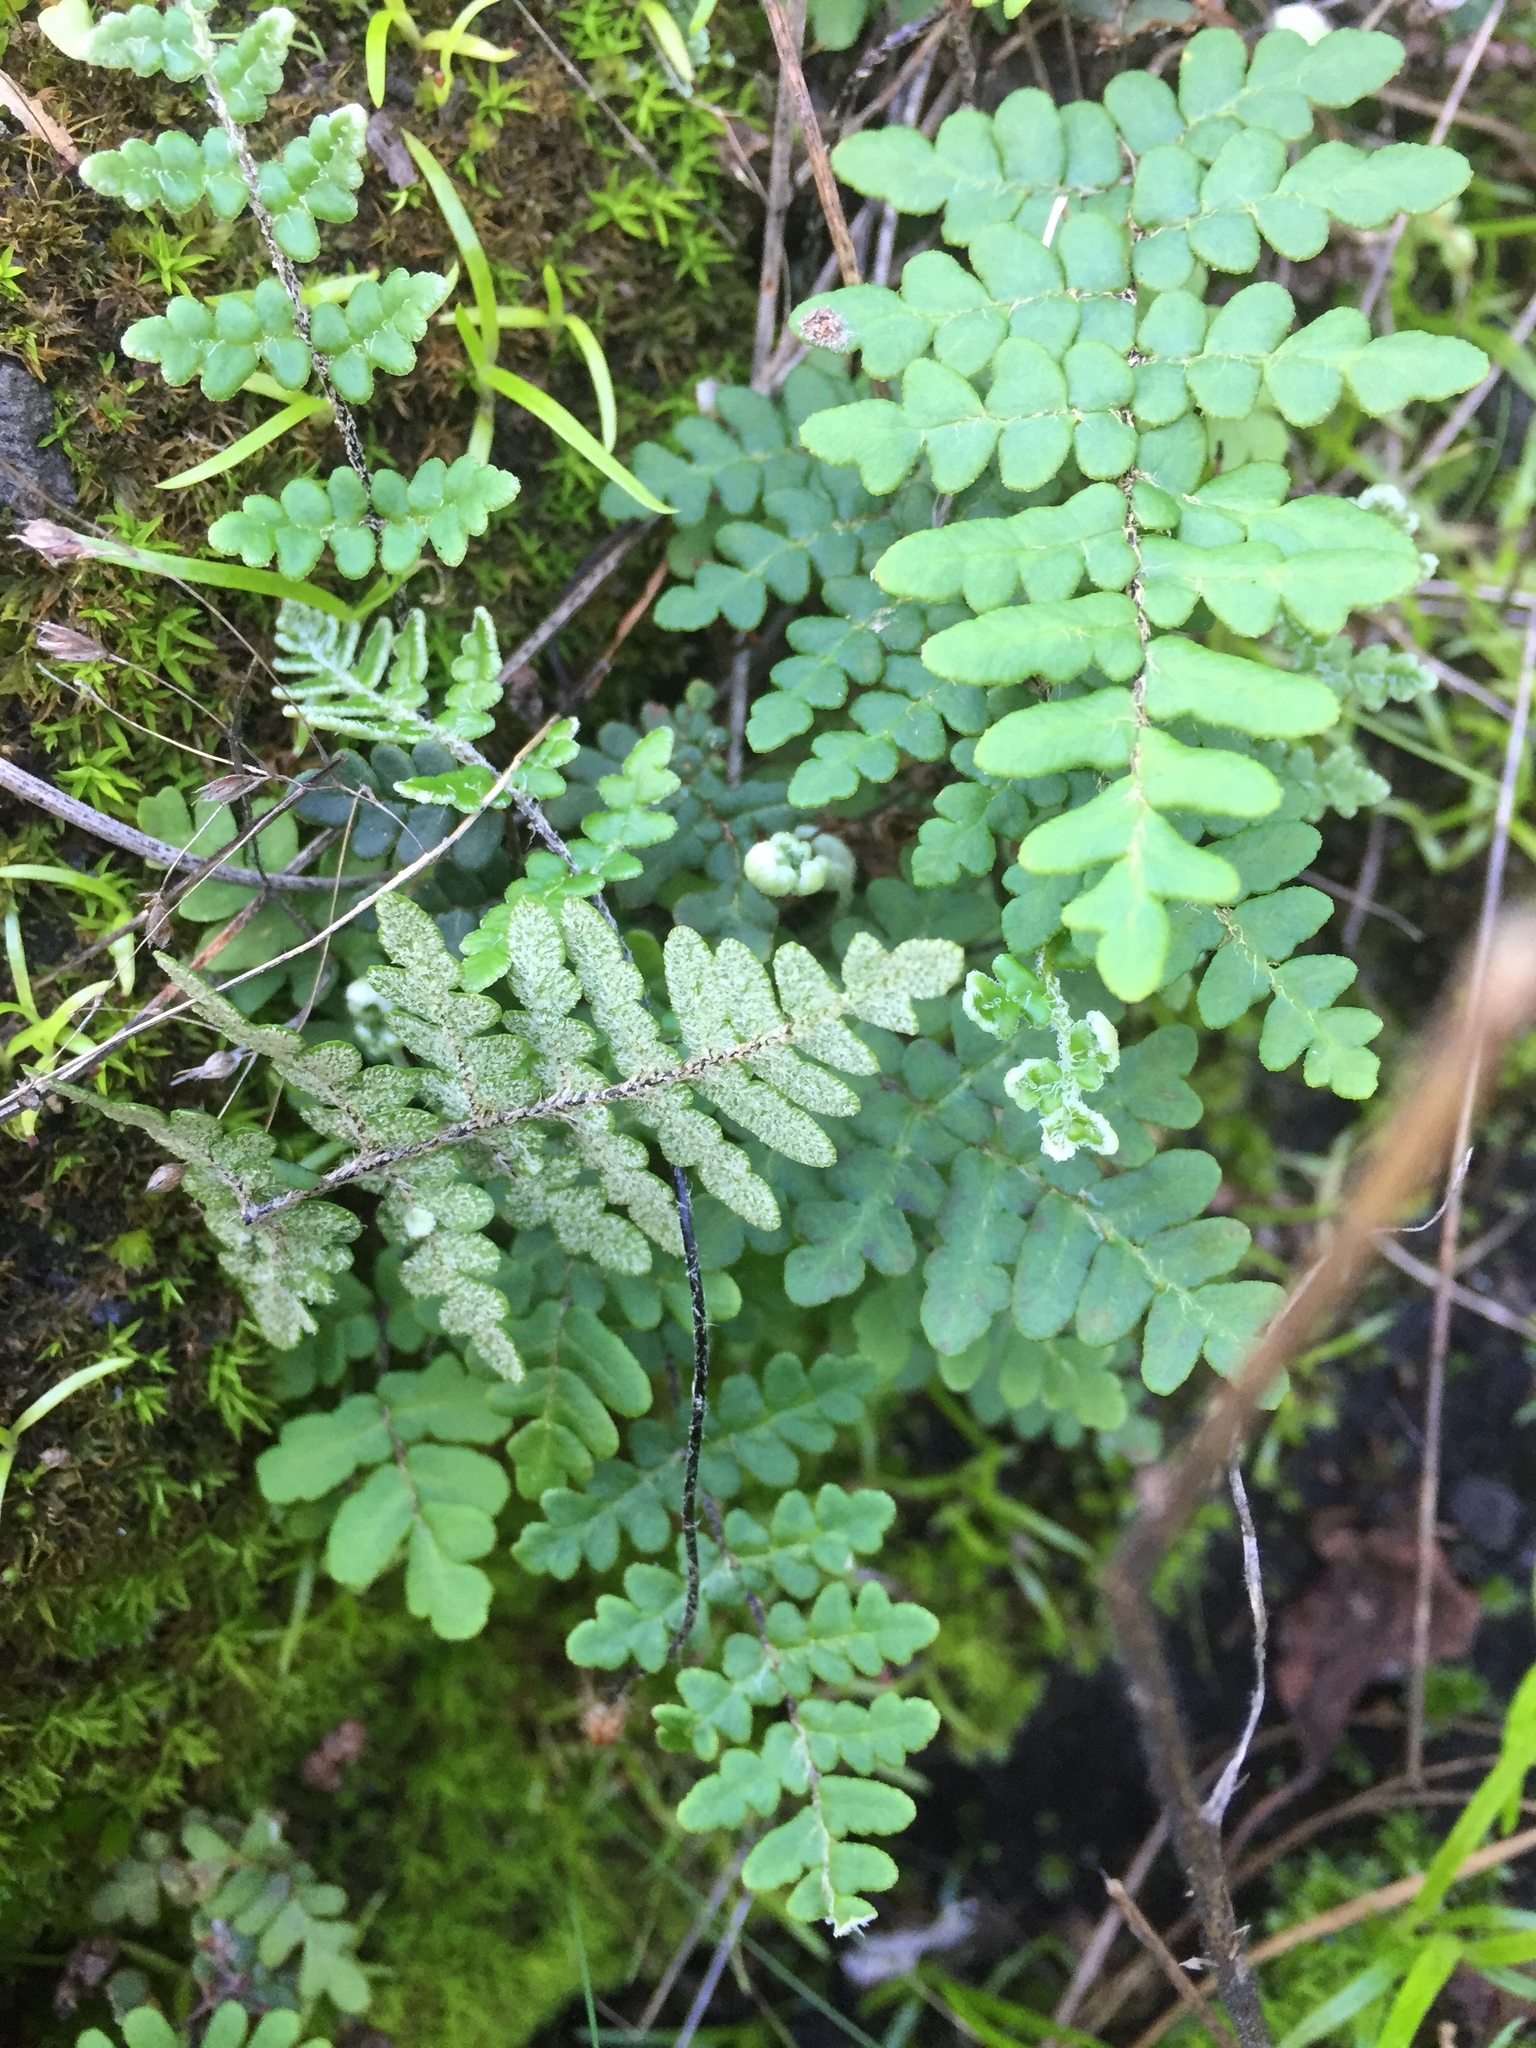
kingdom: Plantae
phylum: Tracheophyta
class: Polypodiopsida
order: Polypodiales
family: Pteridaceae
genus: Paragymnopteris
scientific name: Paragymnopteris marantae
